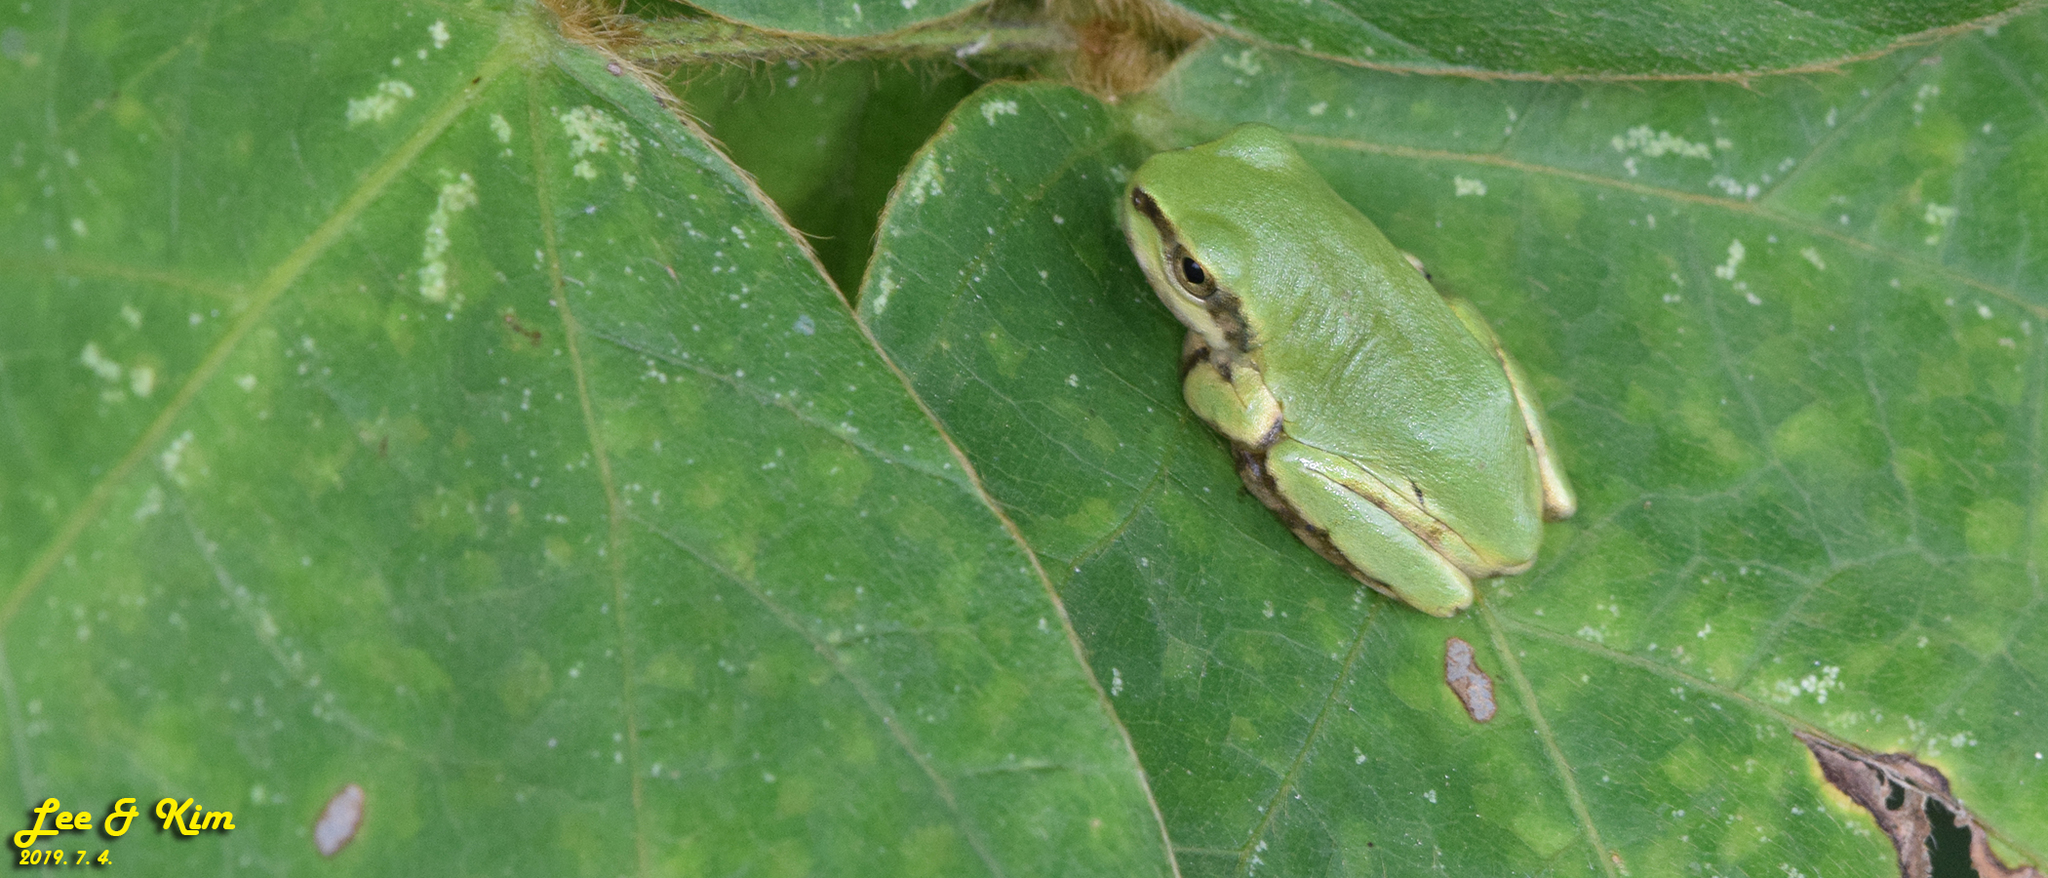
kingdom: Animalia
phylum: Chordata
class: Amphibia
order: Anura
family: Hylidae
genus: Dryophytes
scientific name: Dryophytes japonicus
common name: Japanese treefrog
